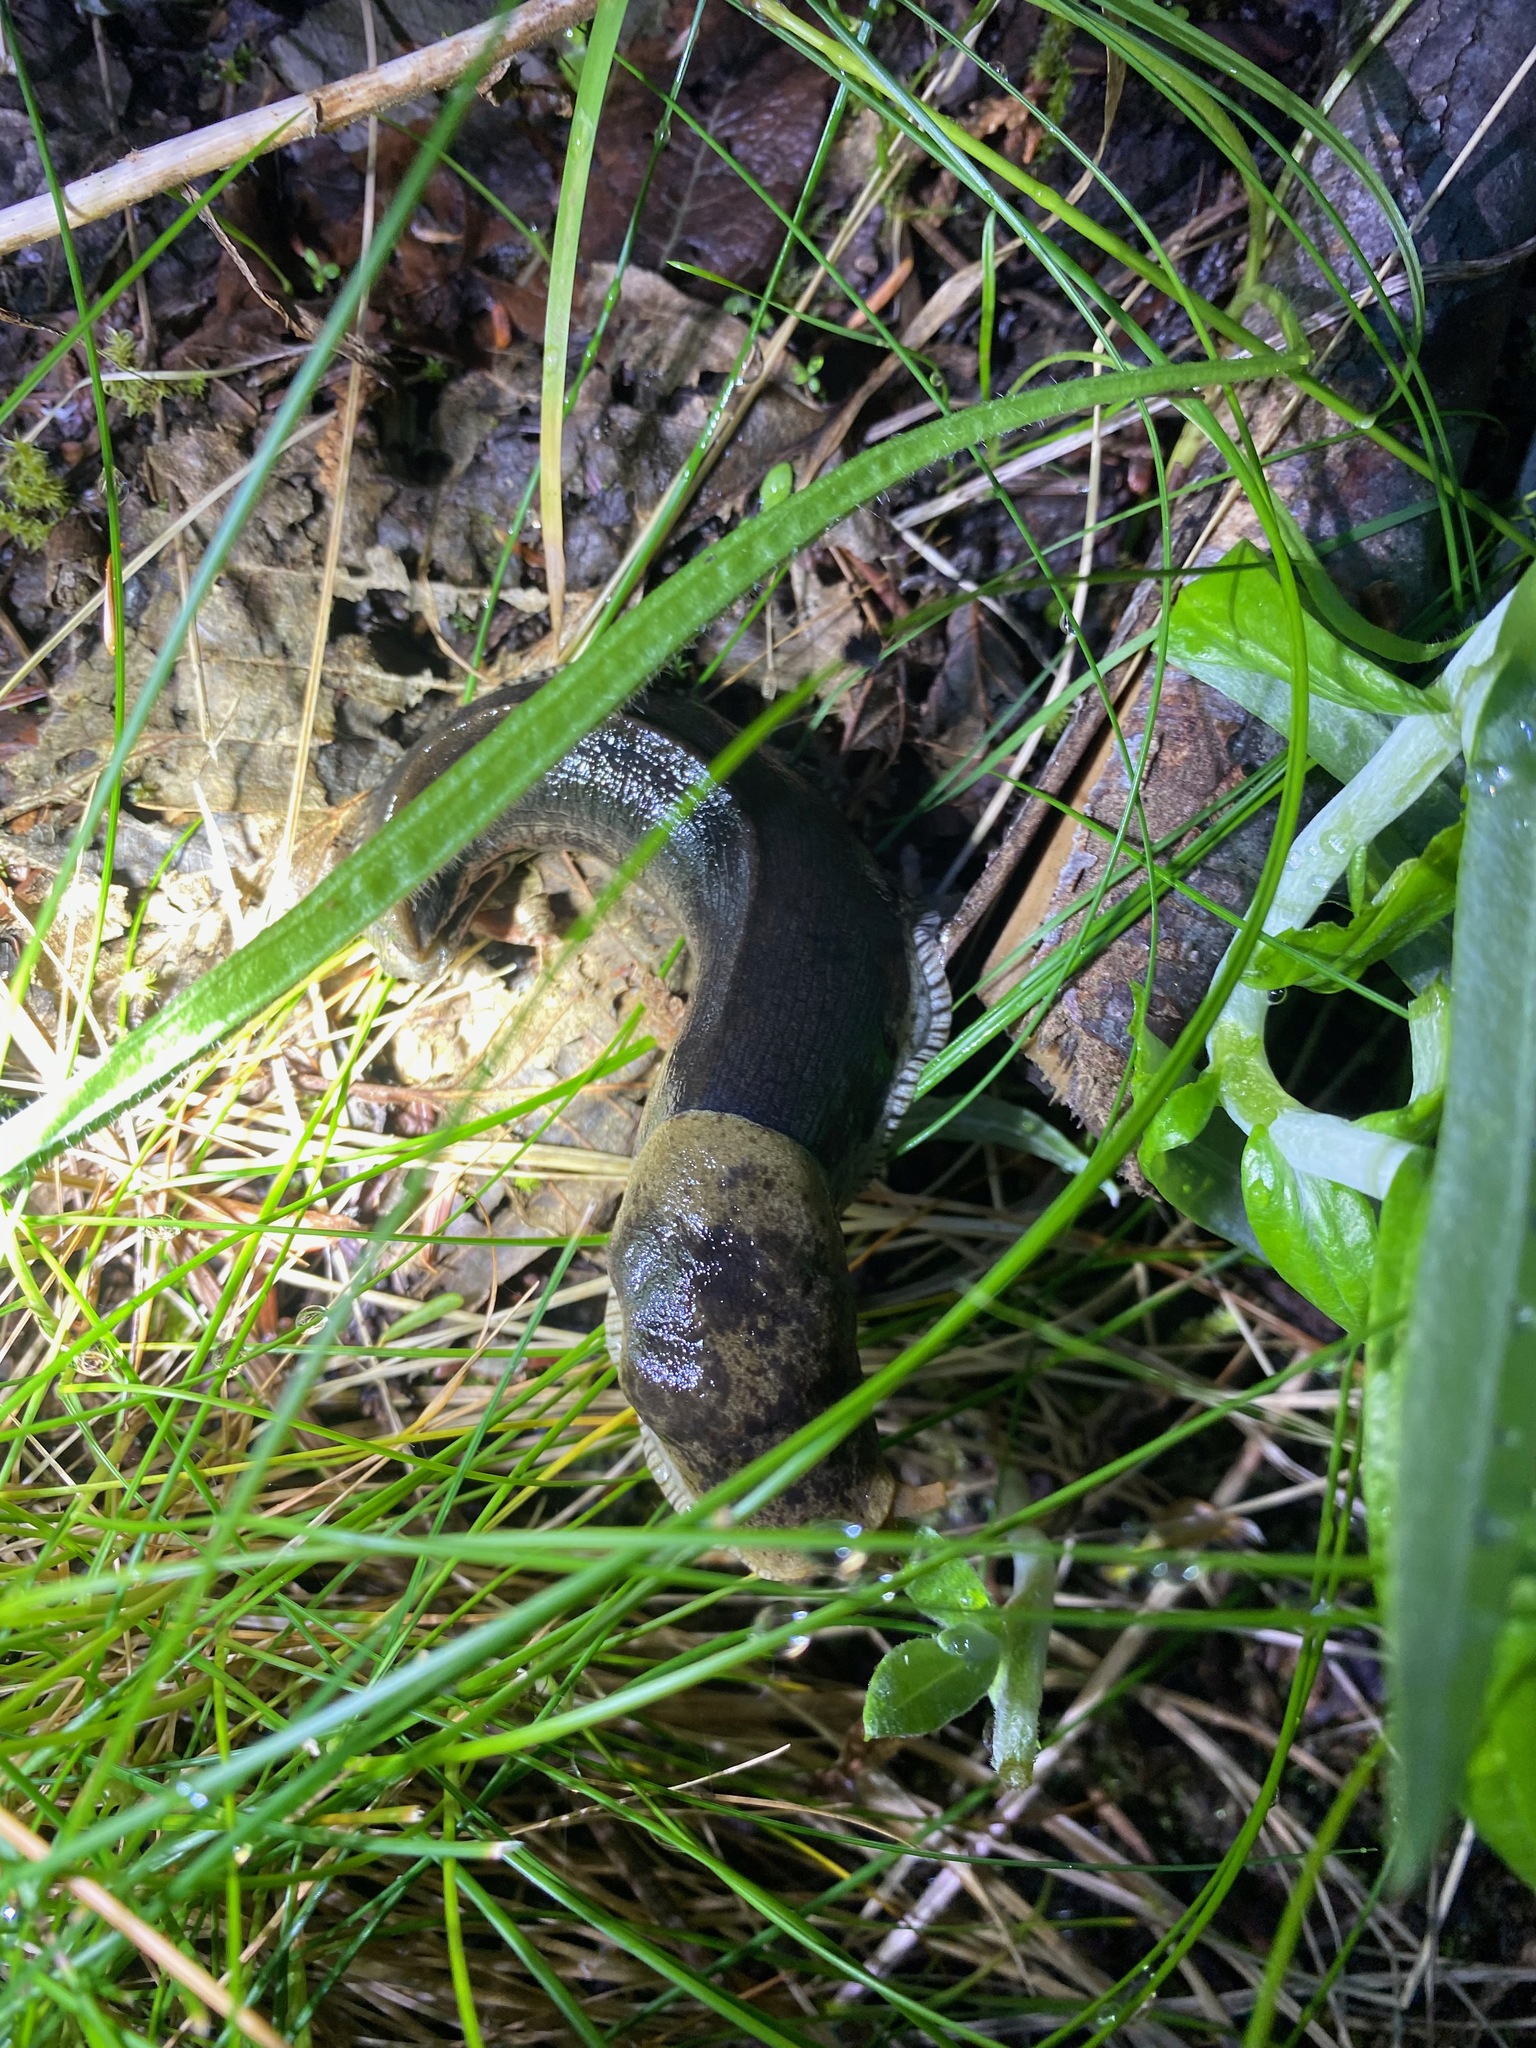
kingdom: Animalia
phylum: Mollusca
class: Gastropoda
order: Stylommatophora
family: Ariolimacidae
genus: Ariolimax
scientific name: Ariolimax columbianus
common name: Pacific banana slug
